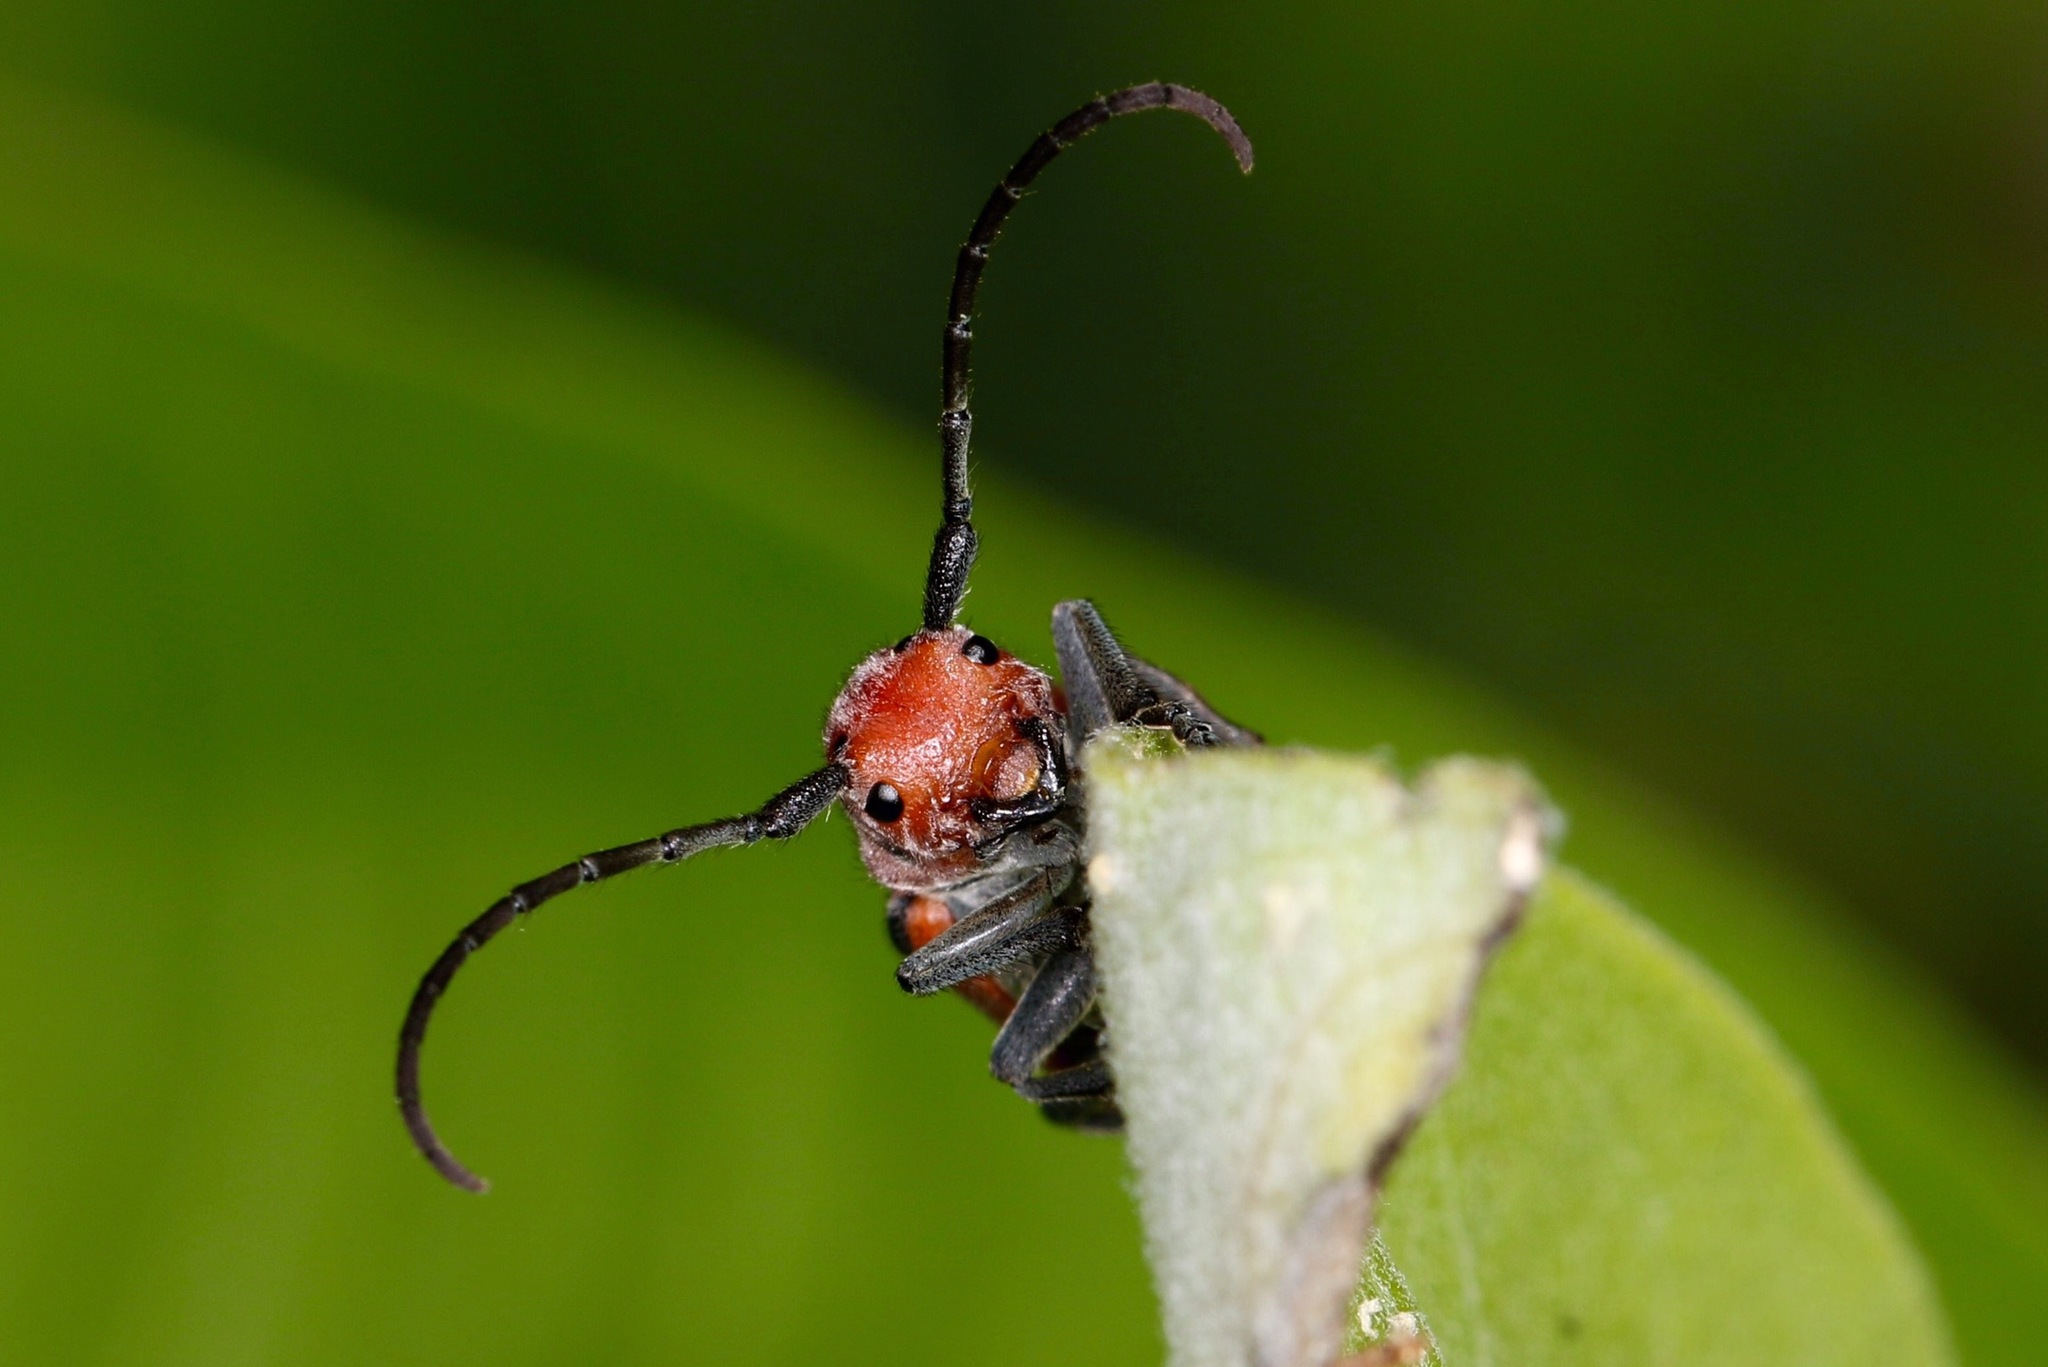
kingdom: Animalia
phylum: Arthropoda
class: Insecta
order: Coleoptera
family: Cerambycidae
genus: Tetraopes
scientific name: Tetraopes tetrophthalmus
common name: Red milkweed beetle
